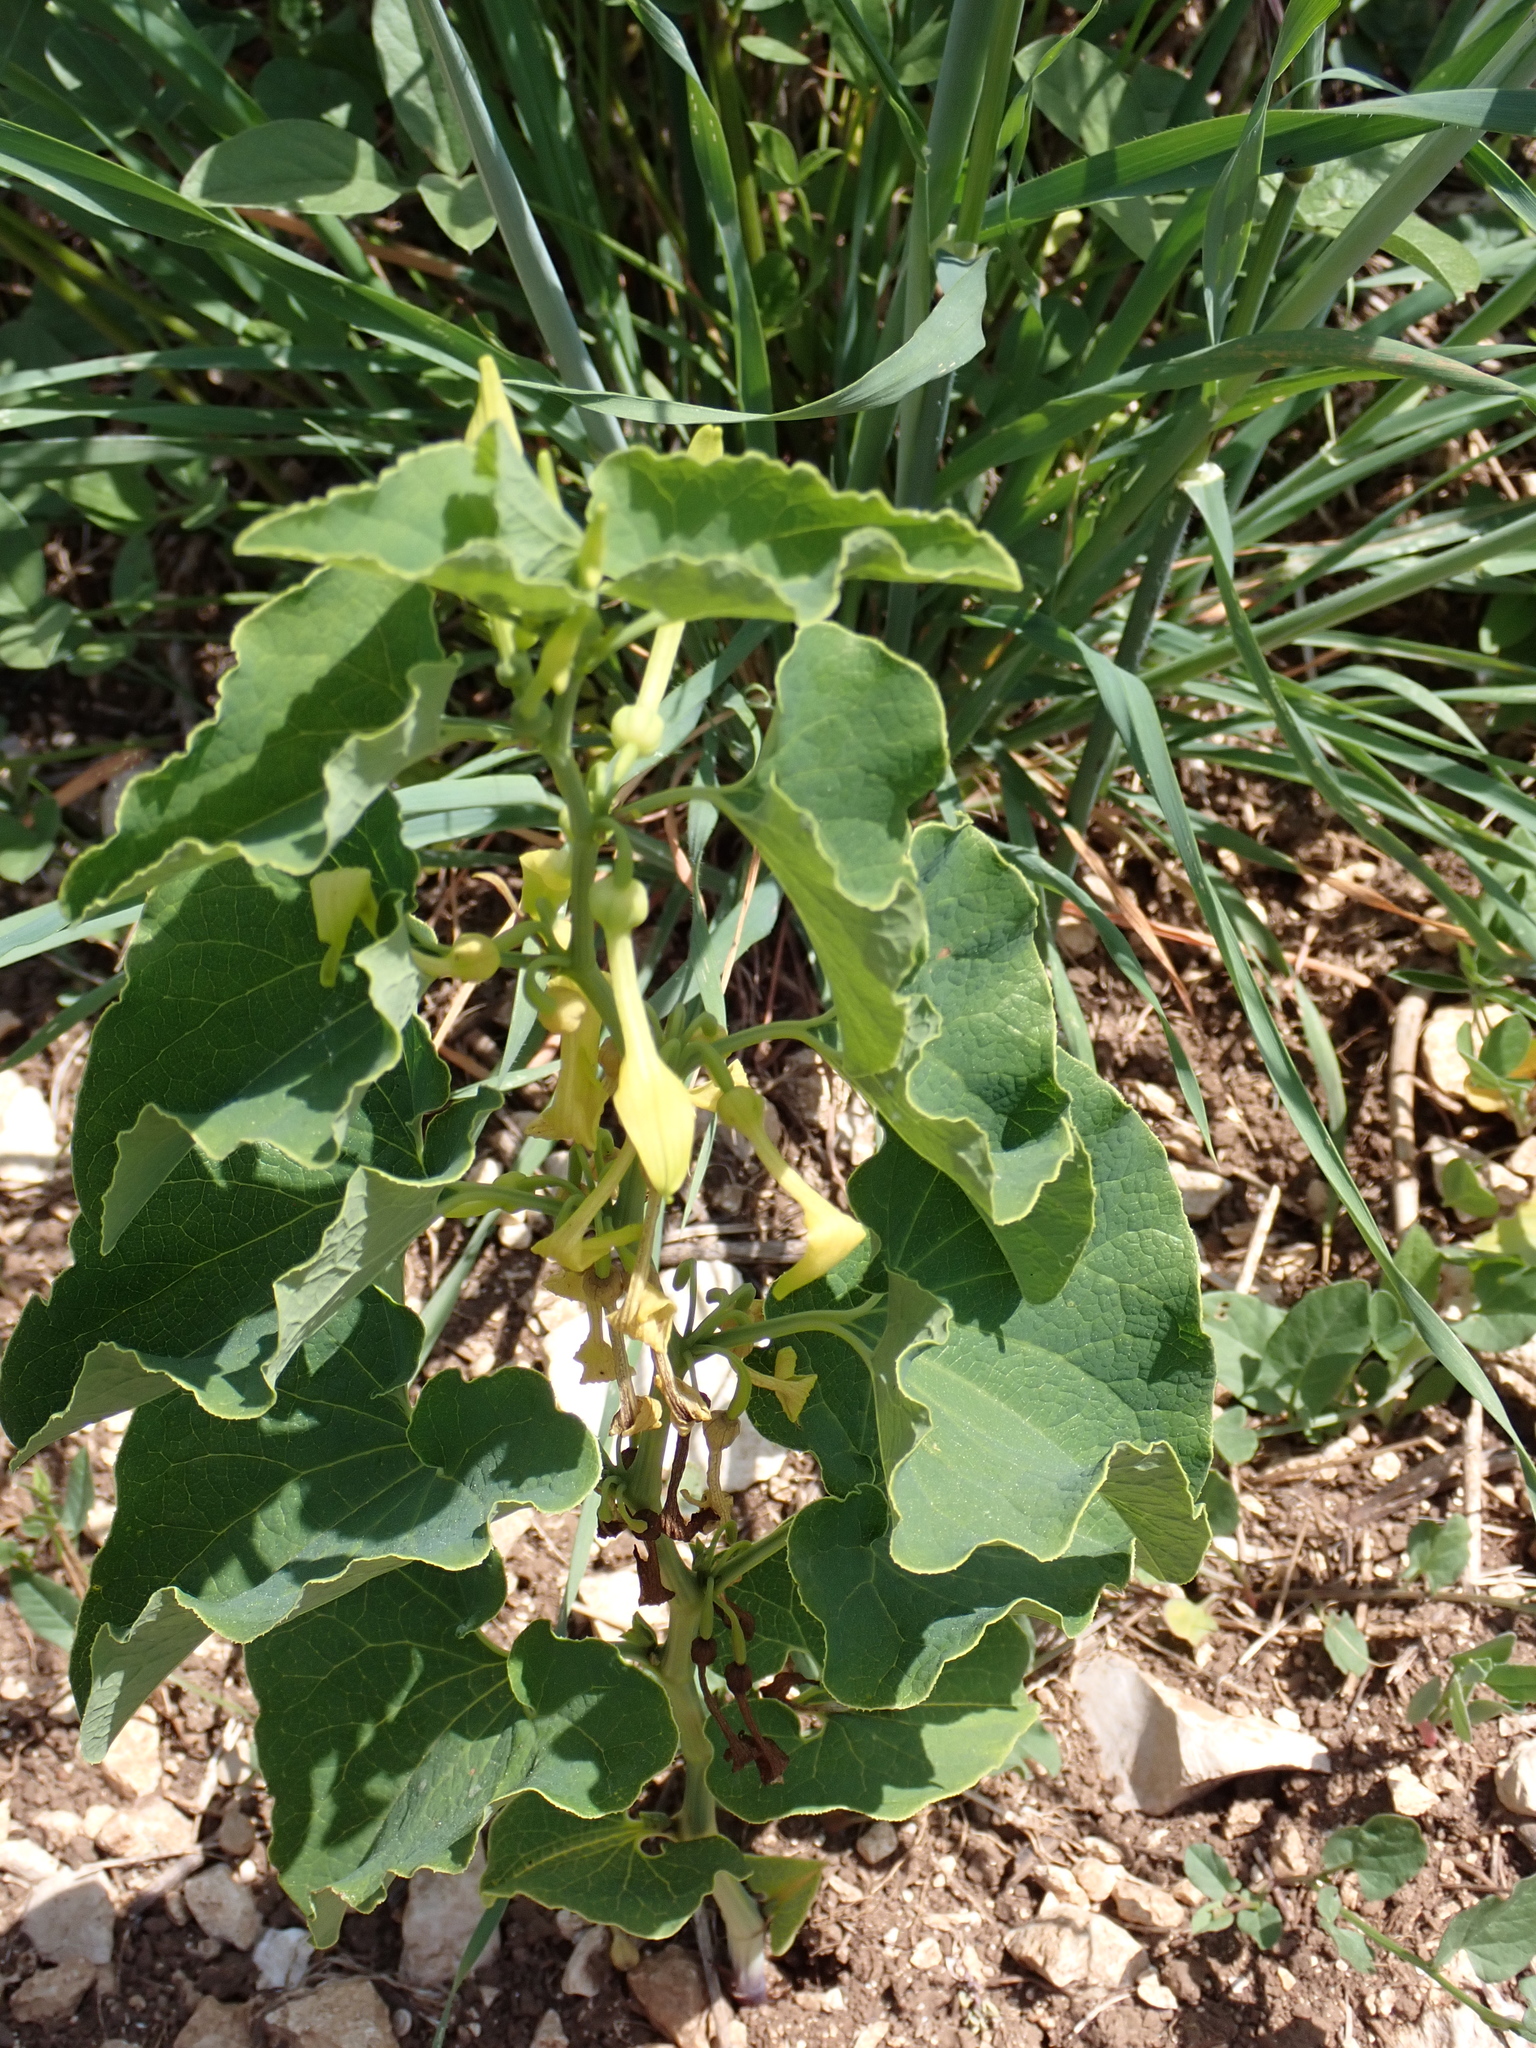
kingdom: Plantae
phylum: Tracheophyta
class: Magnoliopsida
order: Piperales
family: Aristolochiaceae
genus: Aristolochia
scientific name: Aristolochia clematitis
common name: Birthwort
